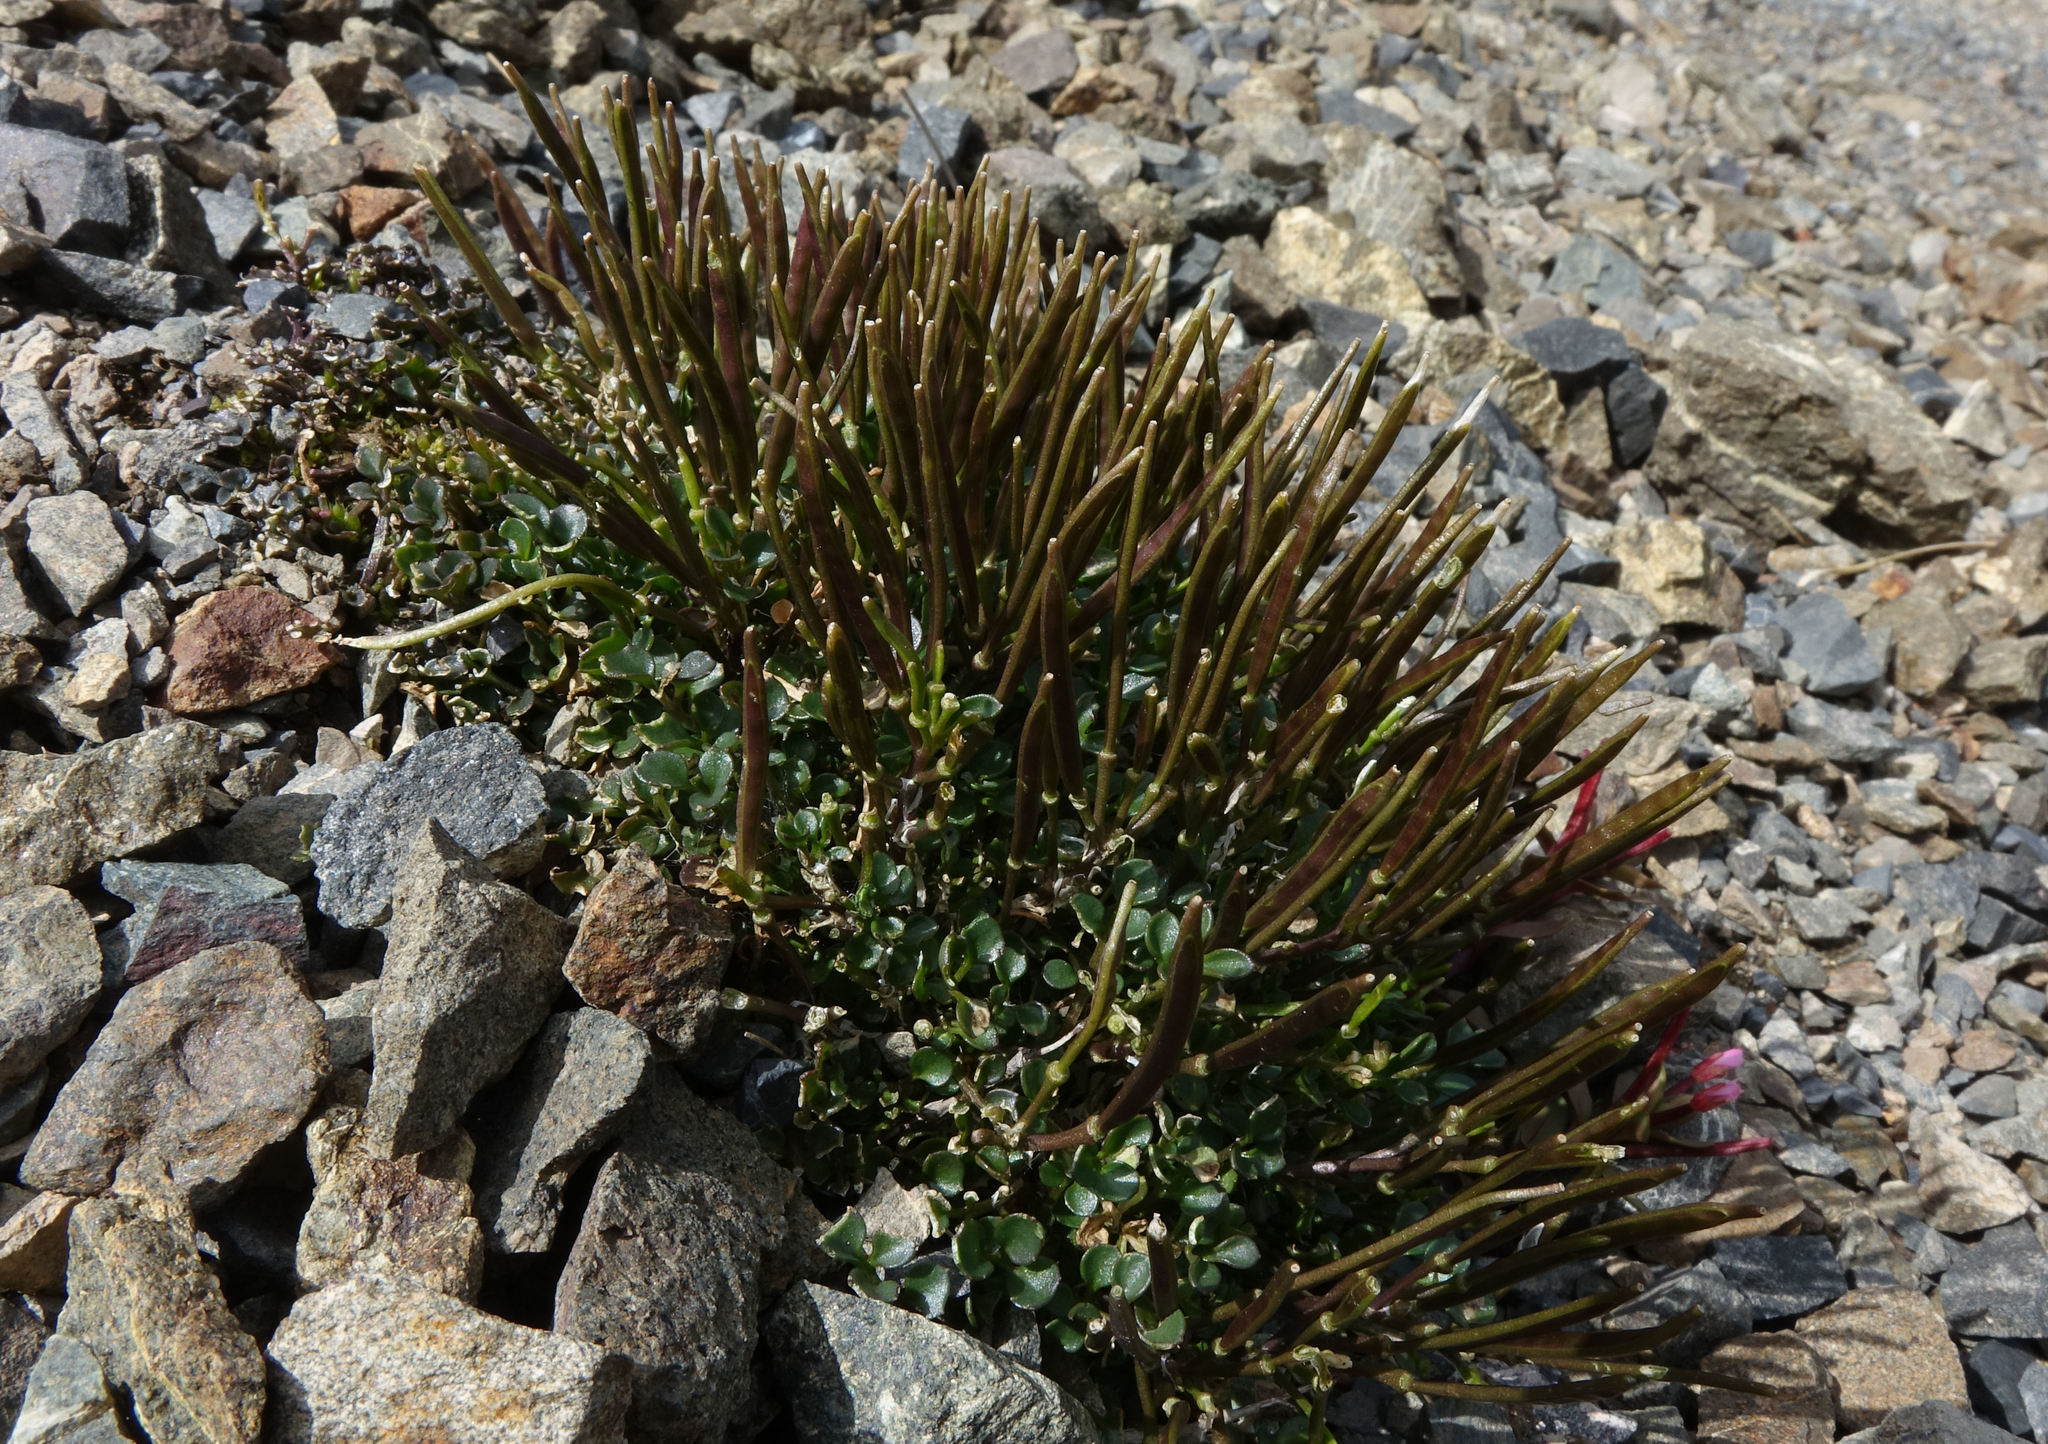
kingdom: Plantae
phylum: Tracheophyta
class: Magnoliopsida
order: Brassicales
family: Brassicaceae
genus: Cardamine
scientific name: Cardamine eminentia
